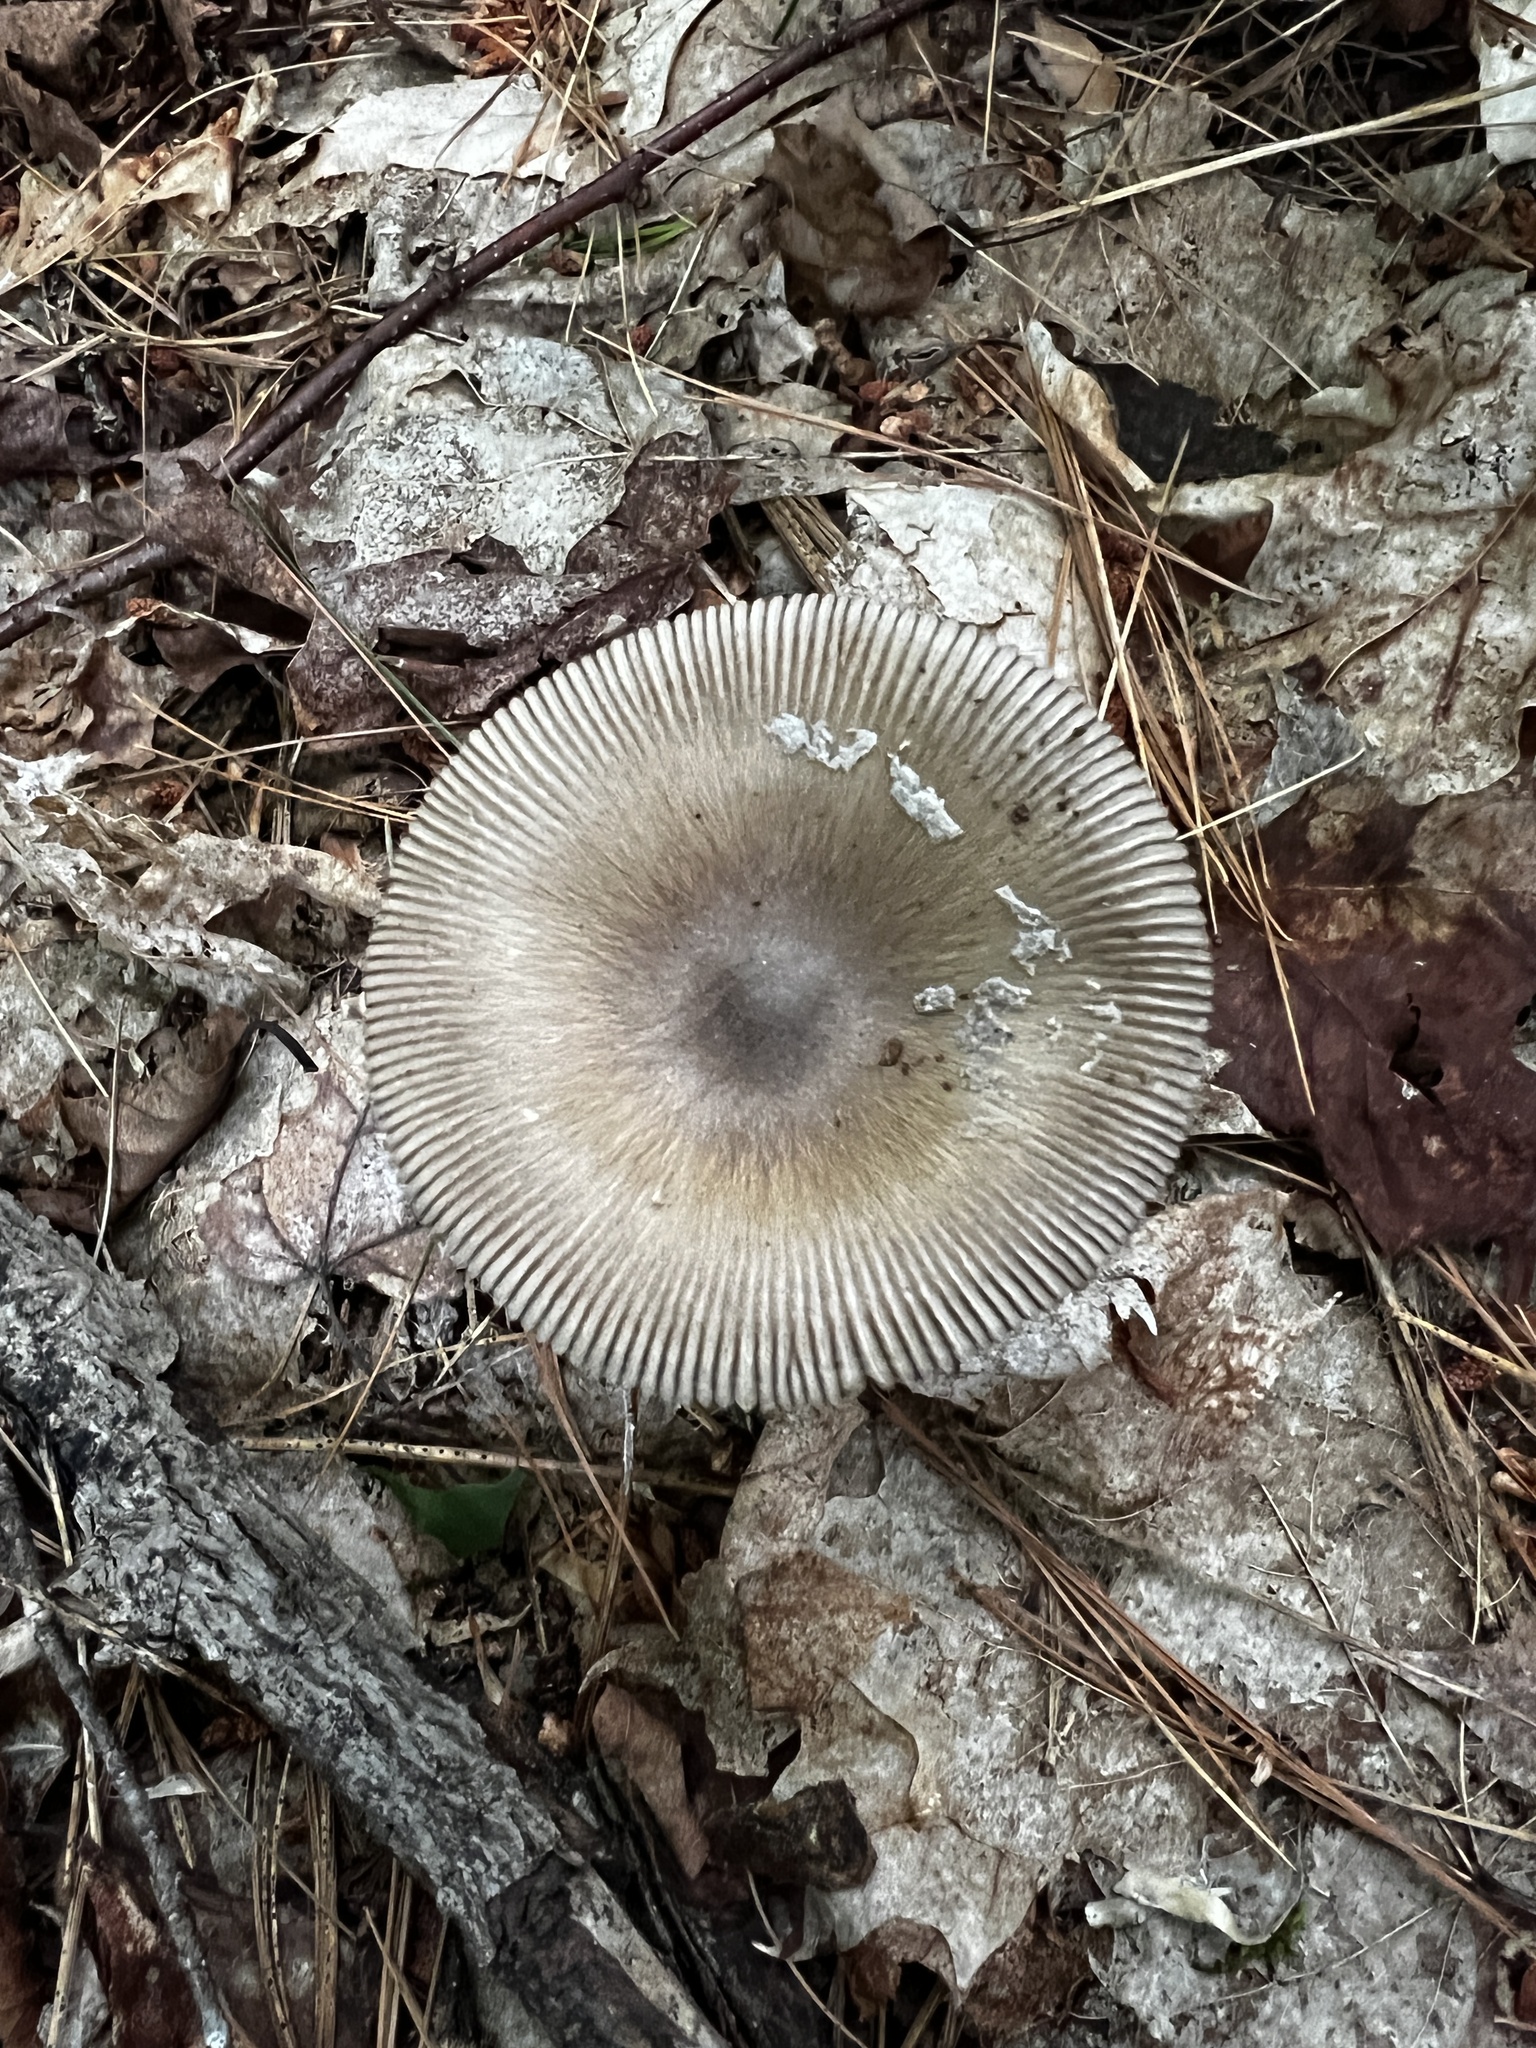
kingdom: Fungi
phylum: Basidiomycota
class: Agaricomycetes
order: Agaricales
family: Amanitaceae
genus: Amanita
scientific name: Amanita rhacopus
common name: Shaggy legged ringless amanita
